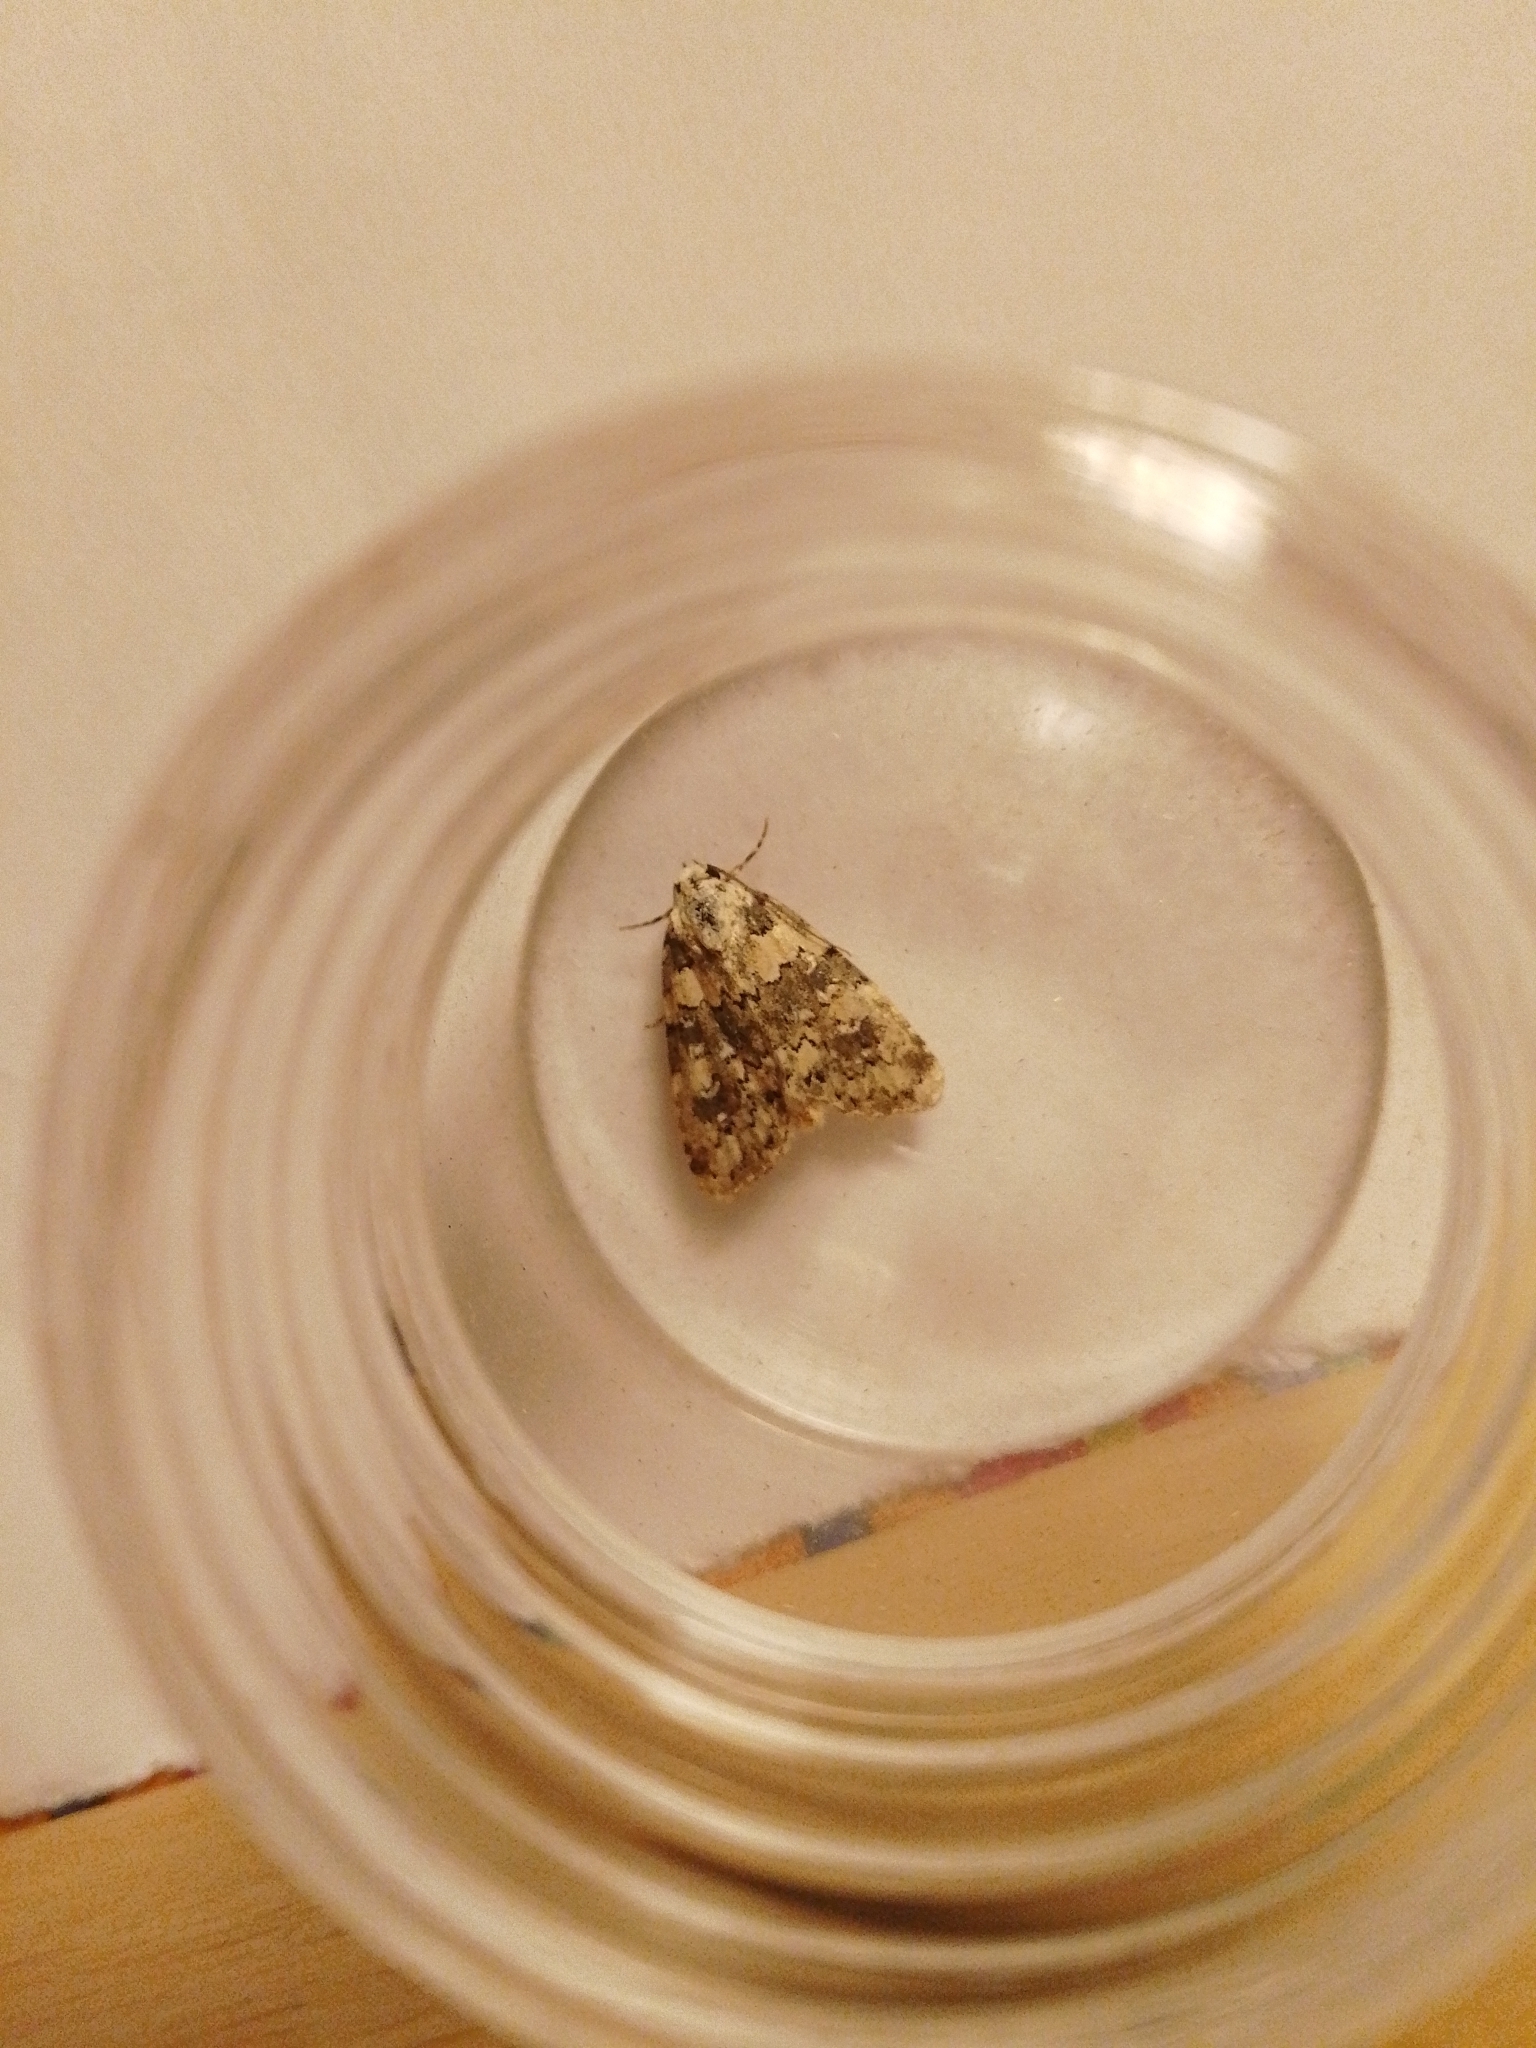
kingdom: Animalia
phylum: Arthropoda
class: Insecta
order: Lepidoptera
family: Noctuidae
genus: Bryophila
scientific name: Bryophila domestica
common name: Marbled beauty
